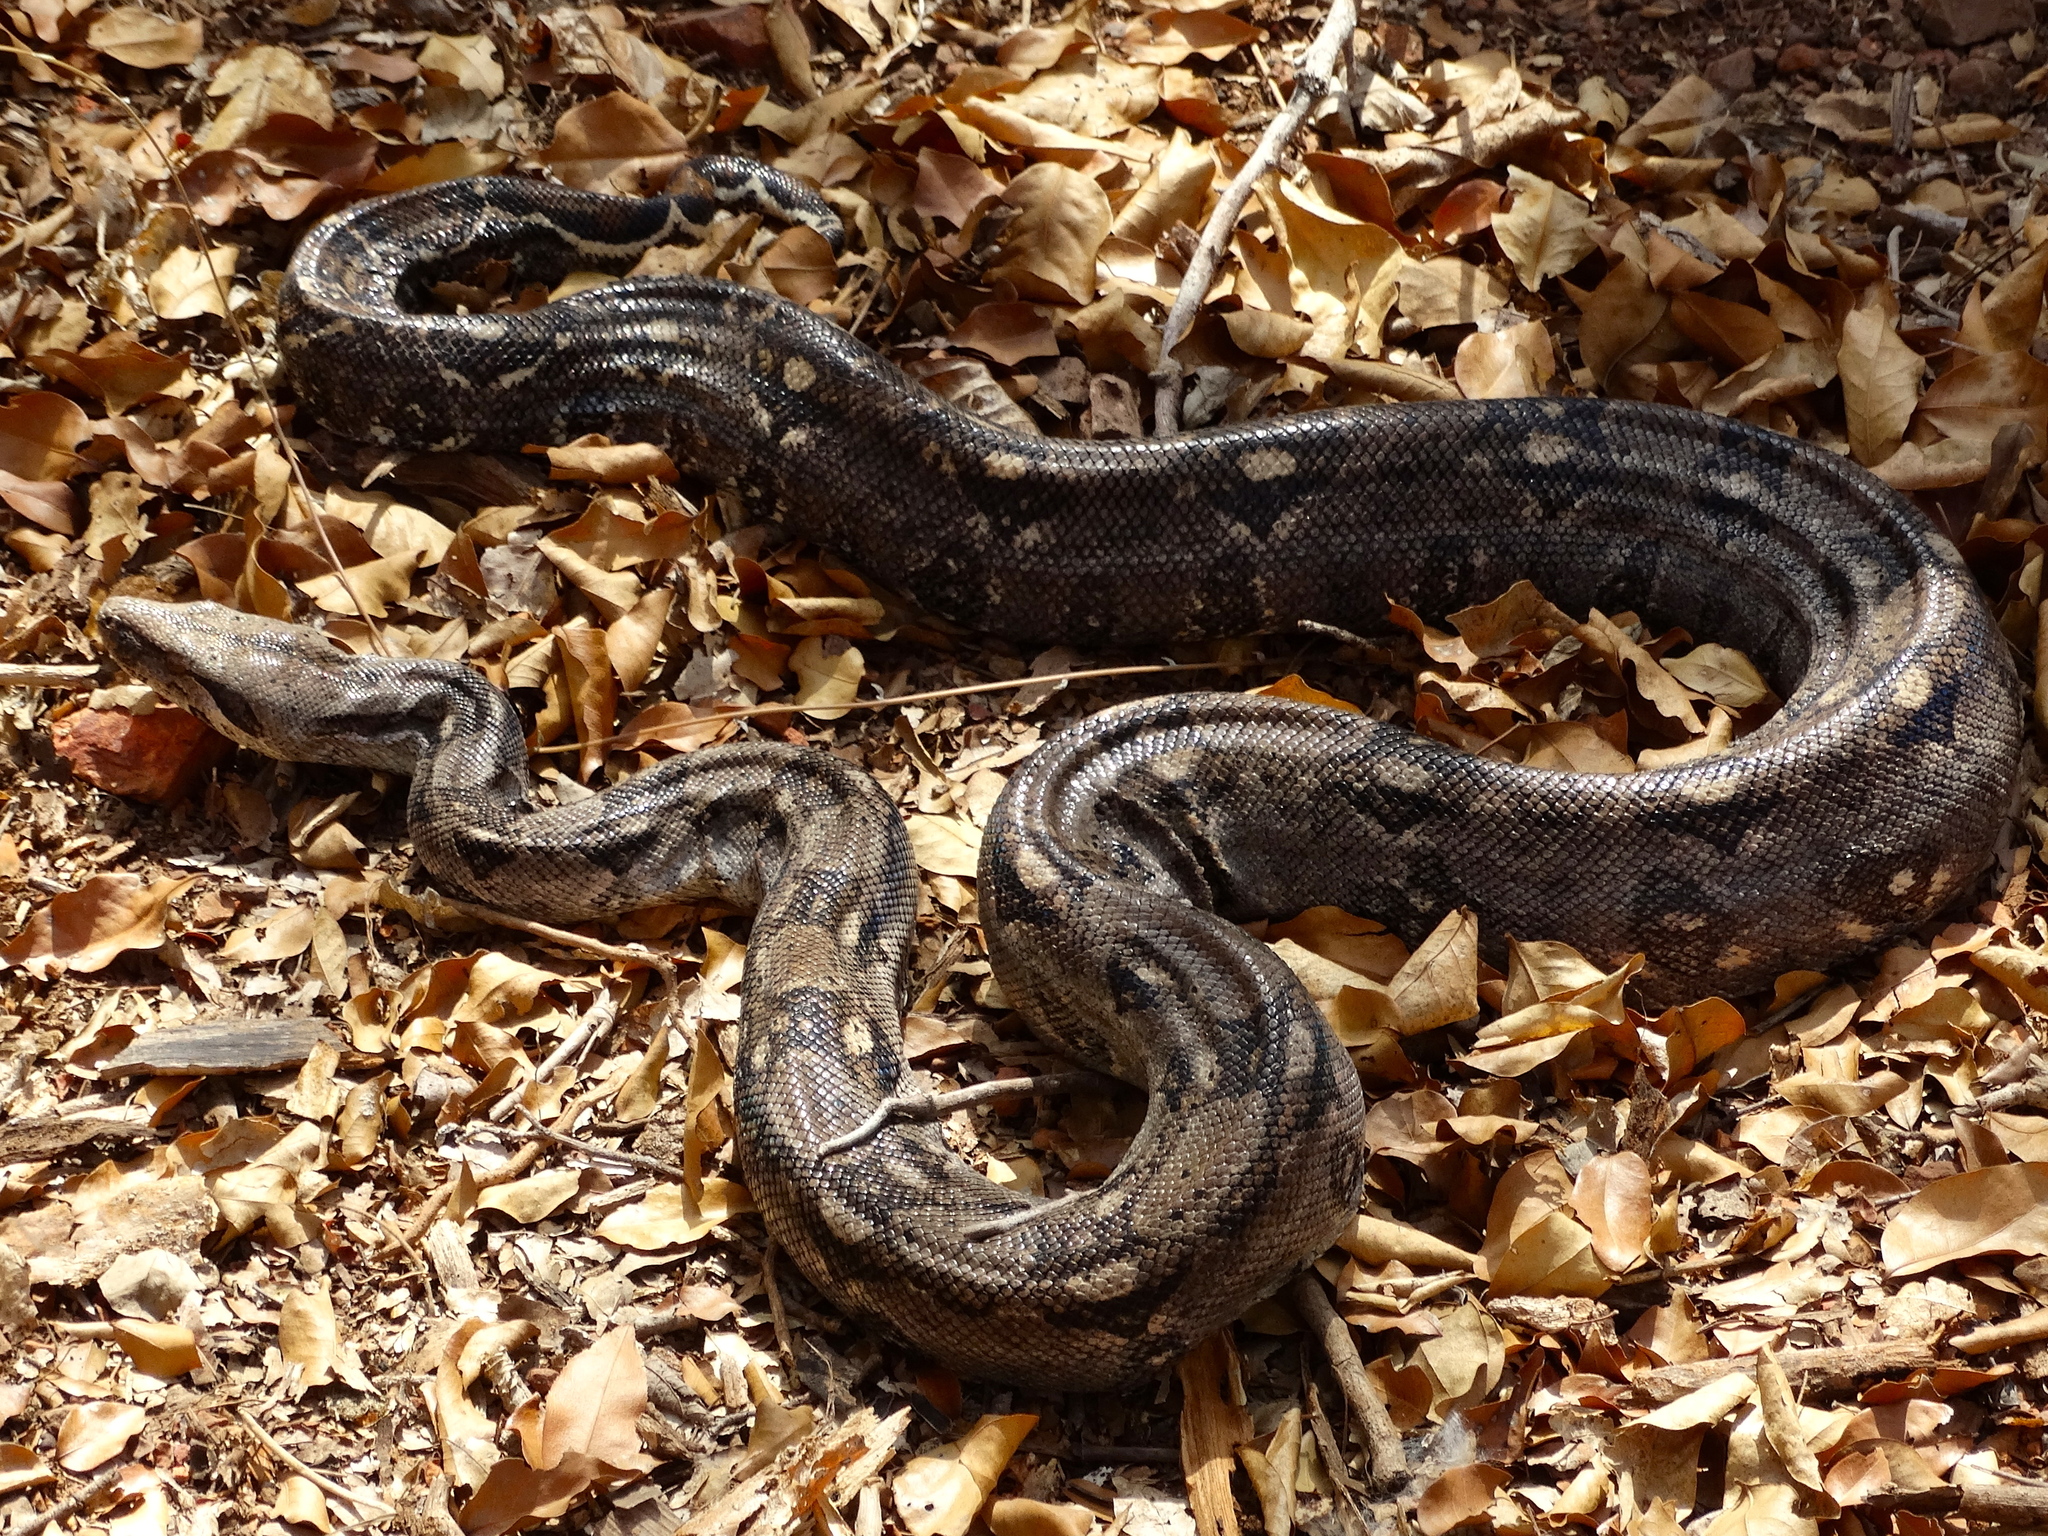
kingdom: Animalia
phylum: Chordata
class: Squamata
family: Boidae
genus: Boa
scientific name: Boa
